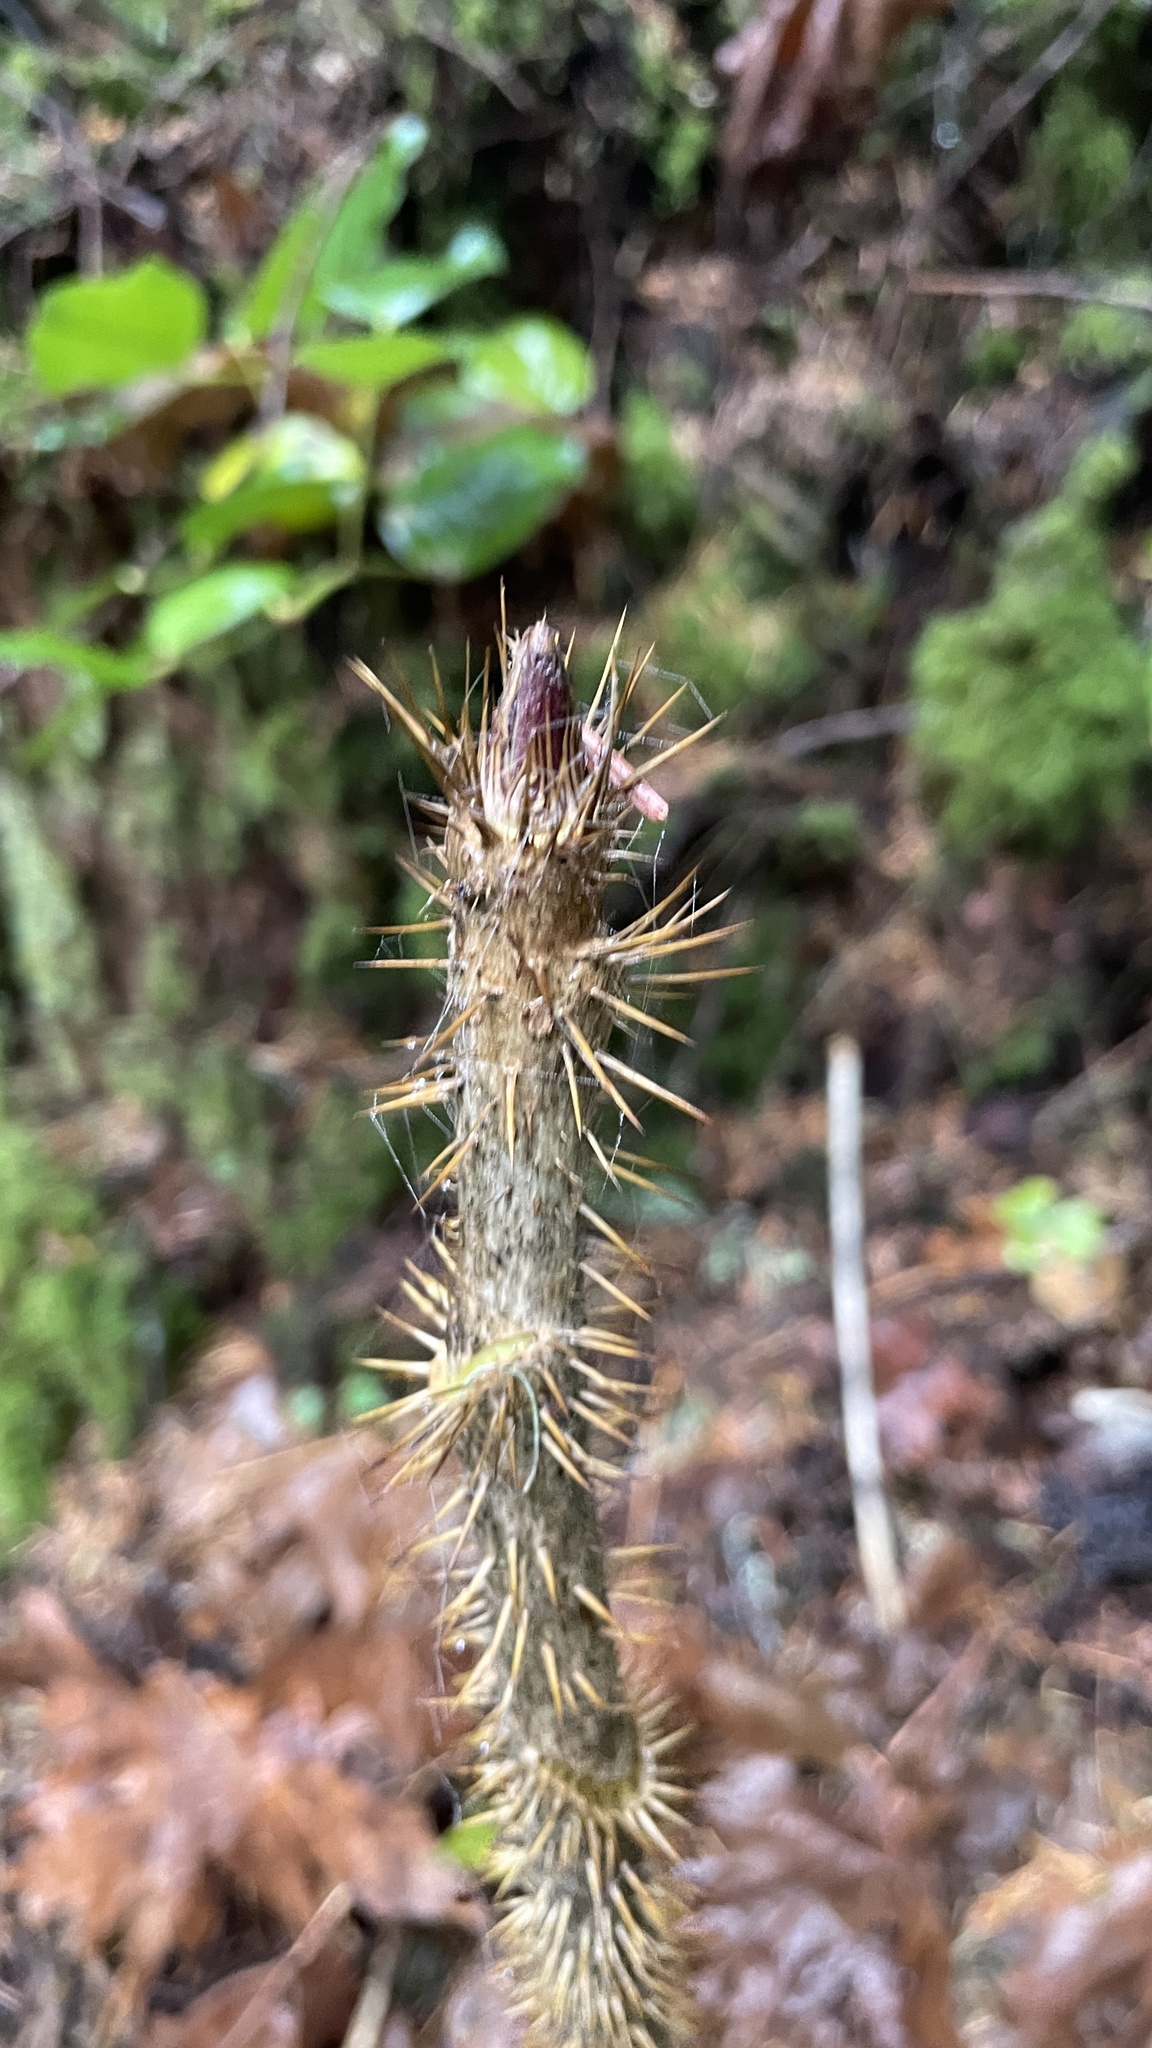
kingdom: Plantae
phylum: Tracheophyta
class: Magnoliopsida
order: Apiales
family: Araliaceae
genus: Oplopanax
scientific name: Oplopanax horridus
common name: Devil's walking-stick
